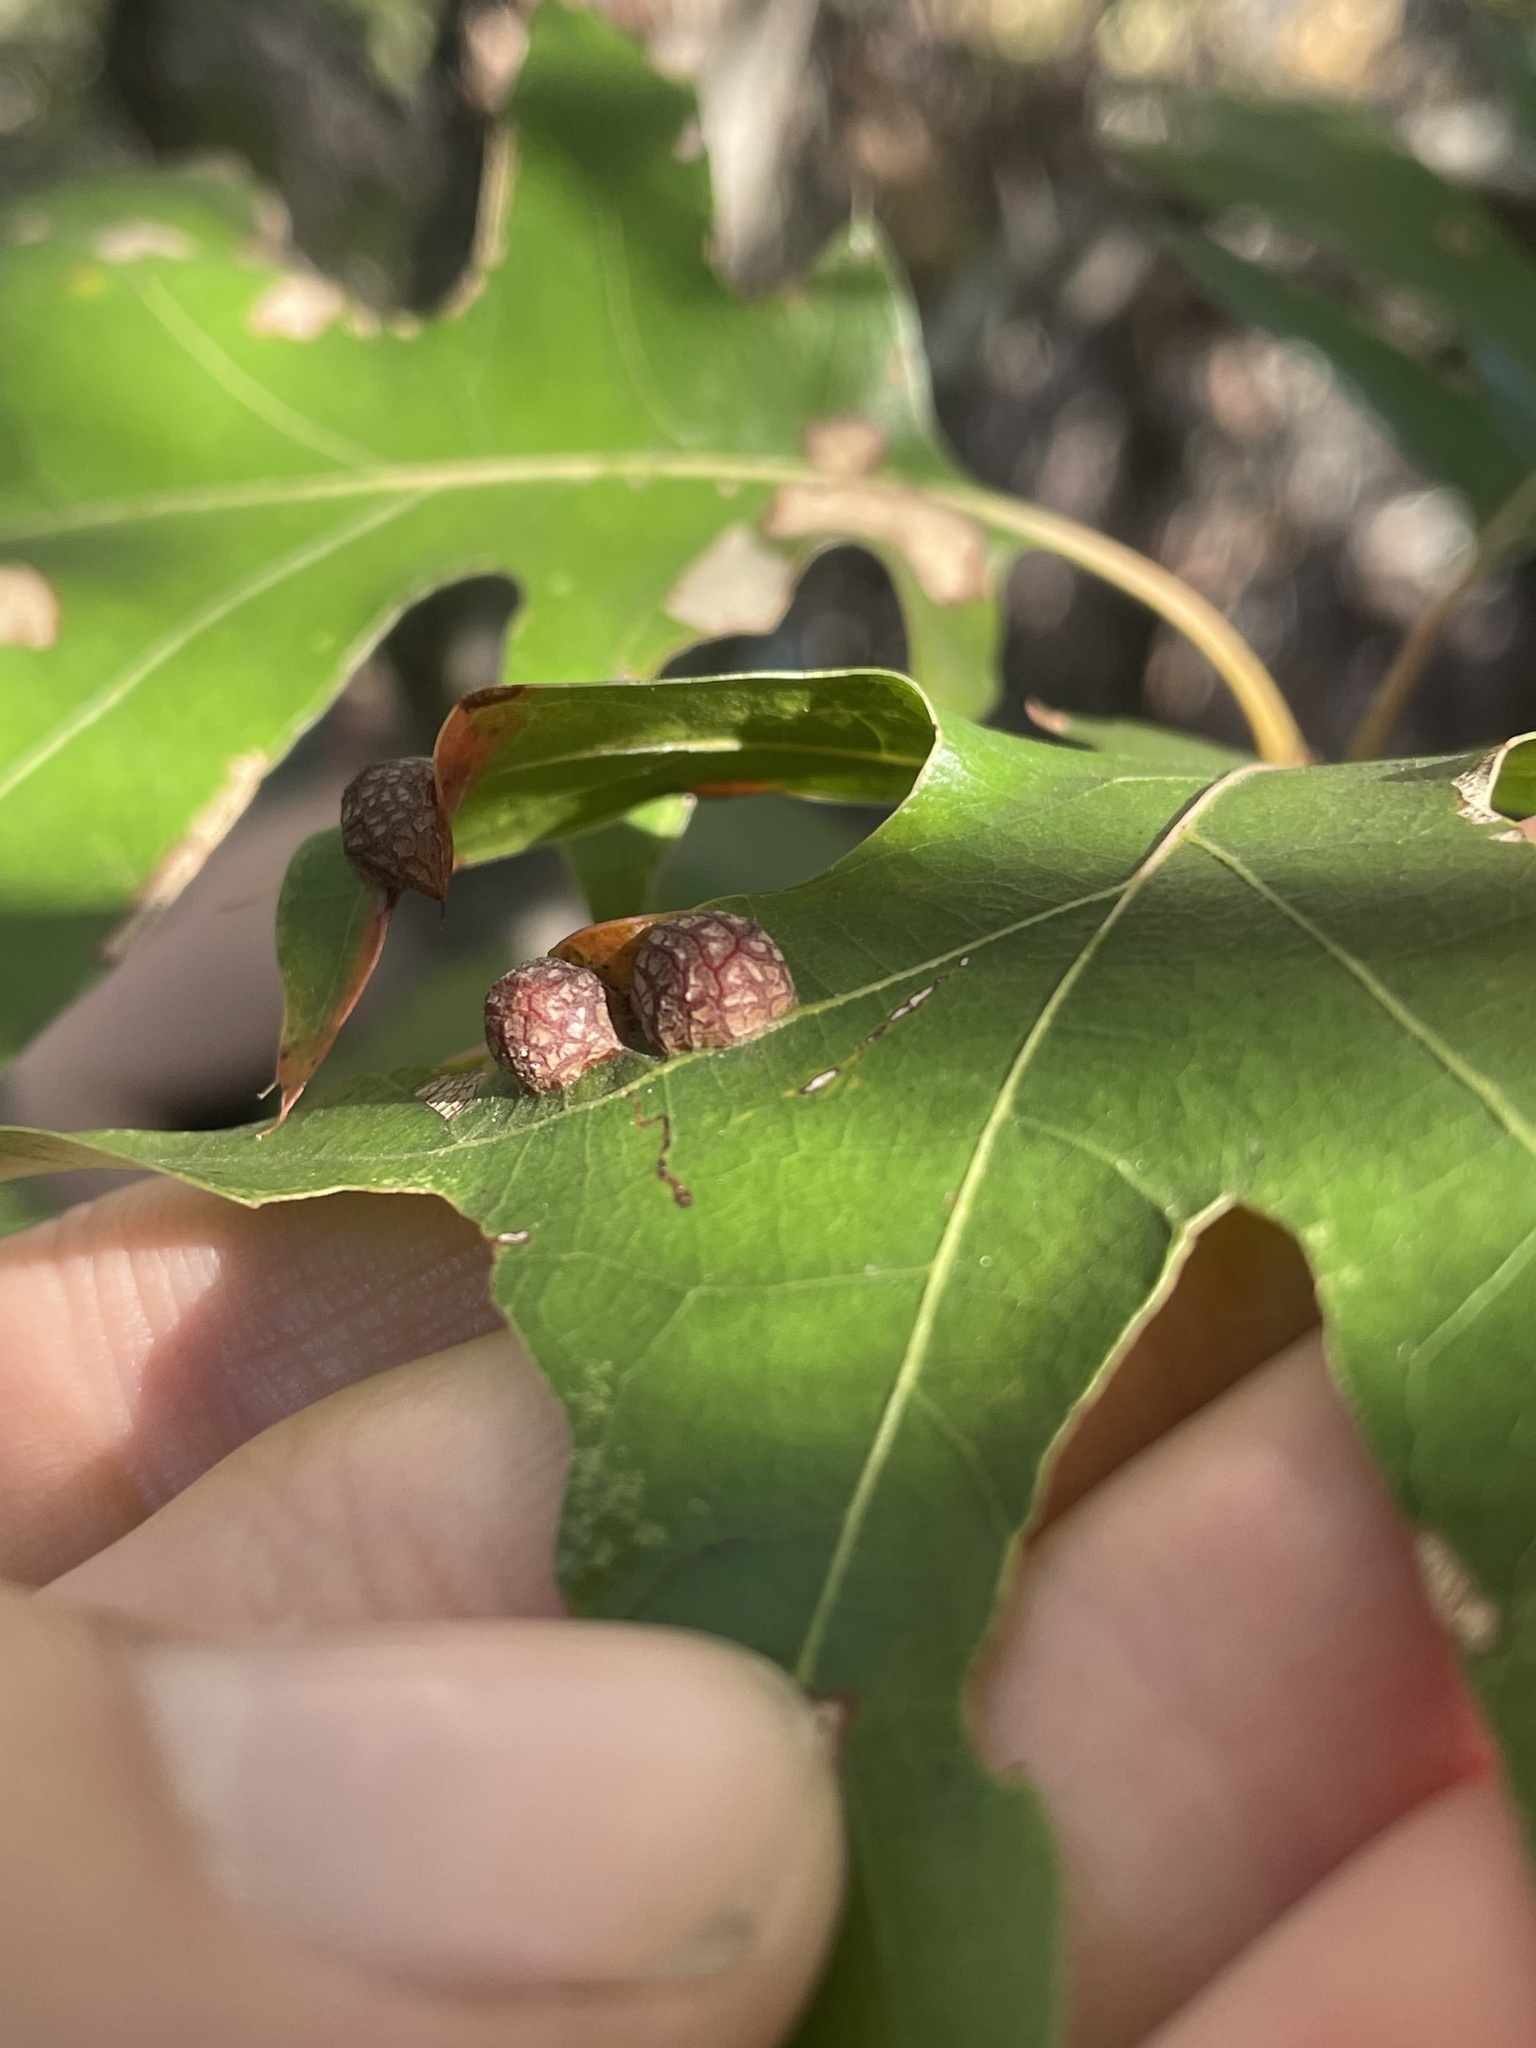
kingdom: Animalia
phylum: Arthropoda
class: Insecta
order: Diptera
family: Cecidomyiidae
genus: Polystepha
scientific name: Polystepha pilulae
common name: Oak leaf gall midge
